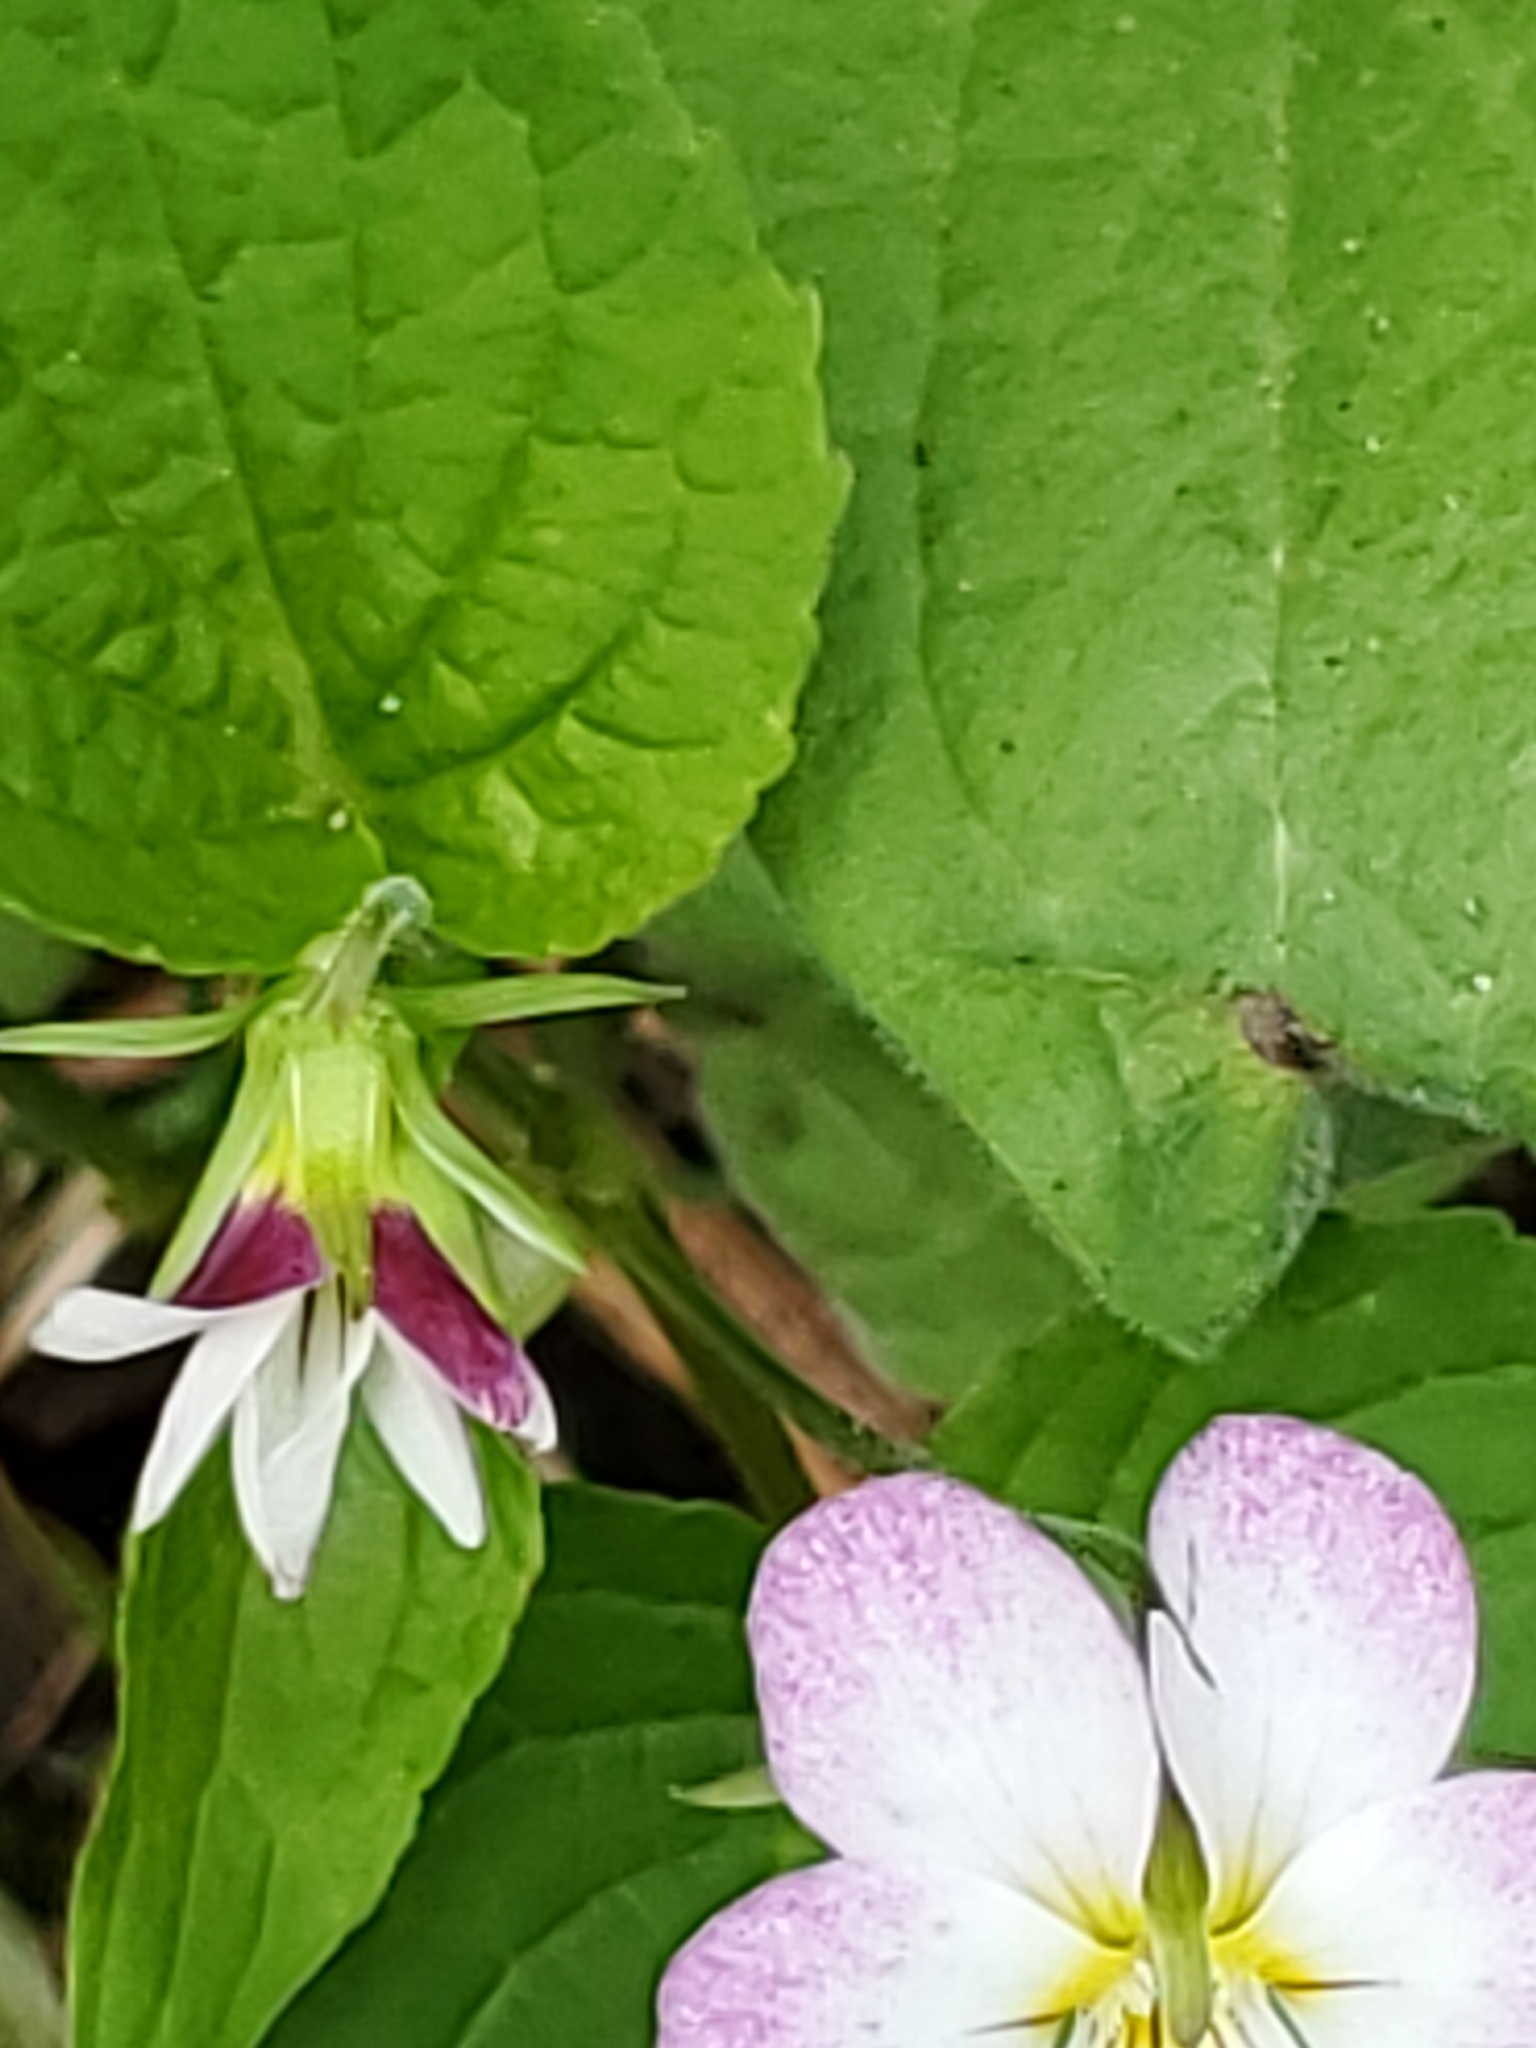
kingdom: Plantae
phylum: Tracheophyta
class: Magnoliopsida
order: Malpighiales
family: Violaceae
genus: Viola
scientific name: Viola canadensis
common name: Canada violet
